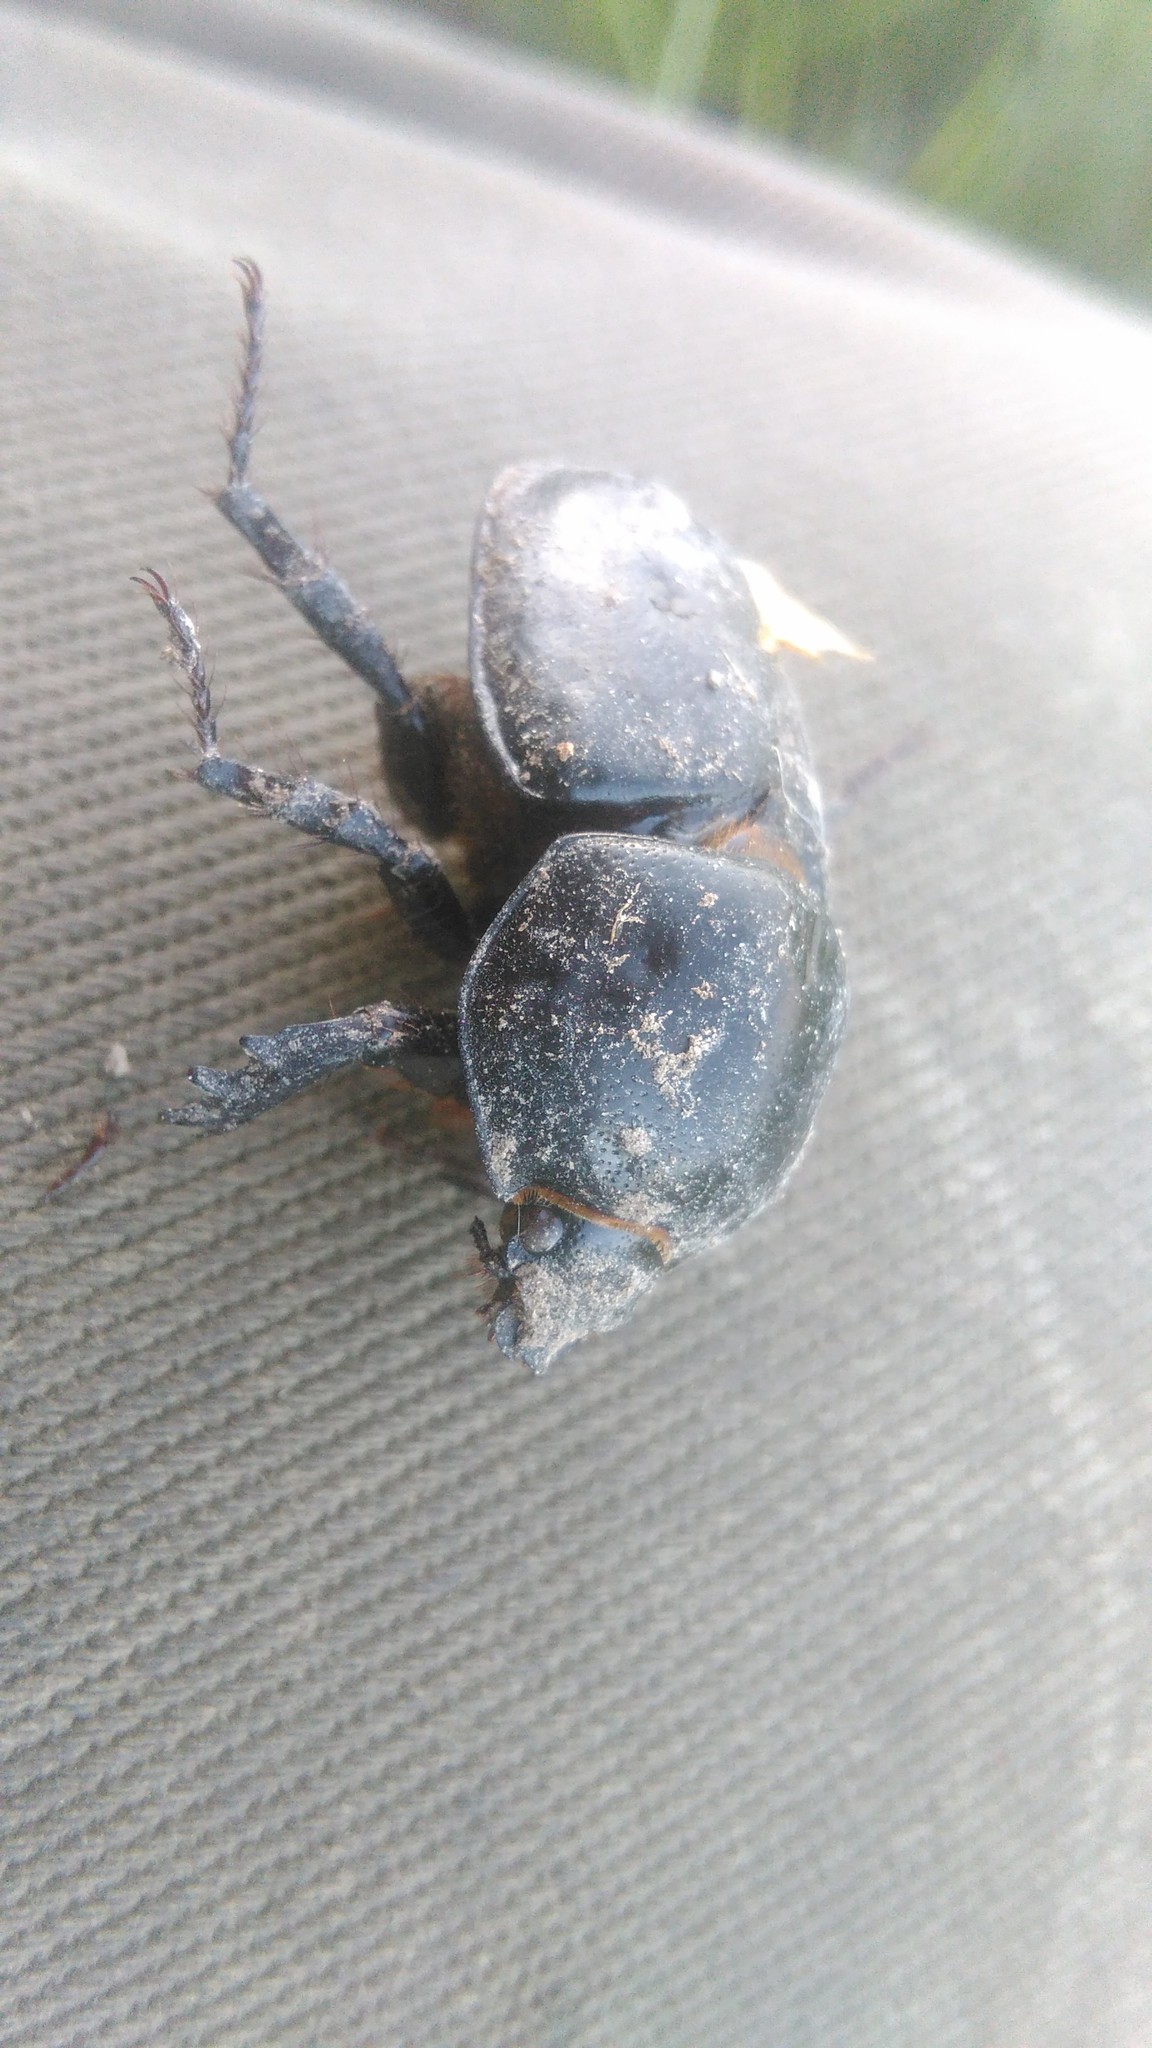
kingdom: Animalia
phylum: Arthropoda
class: Insecta
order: Coleoptera
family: Scarabaeidae
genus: Diloboderus
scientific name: Diloboderus abderus
